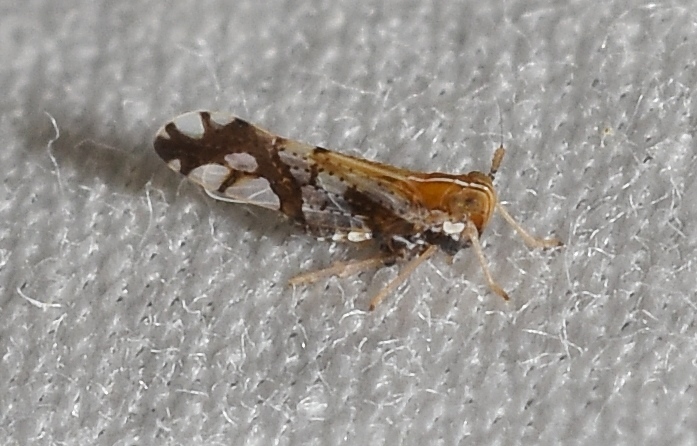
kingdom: Animalia
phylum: Arthropoda
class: Insecta
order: Hemiptera
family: Delphacidae
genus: Liburniella
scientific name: Liburniella ornata
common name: Ornate planthopper
